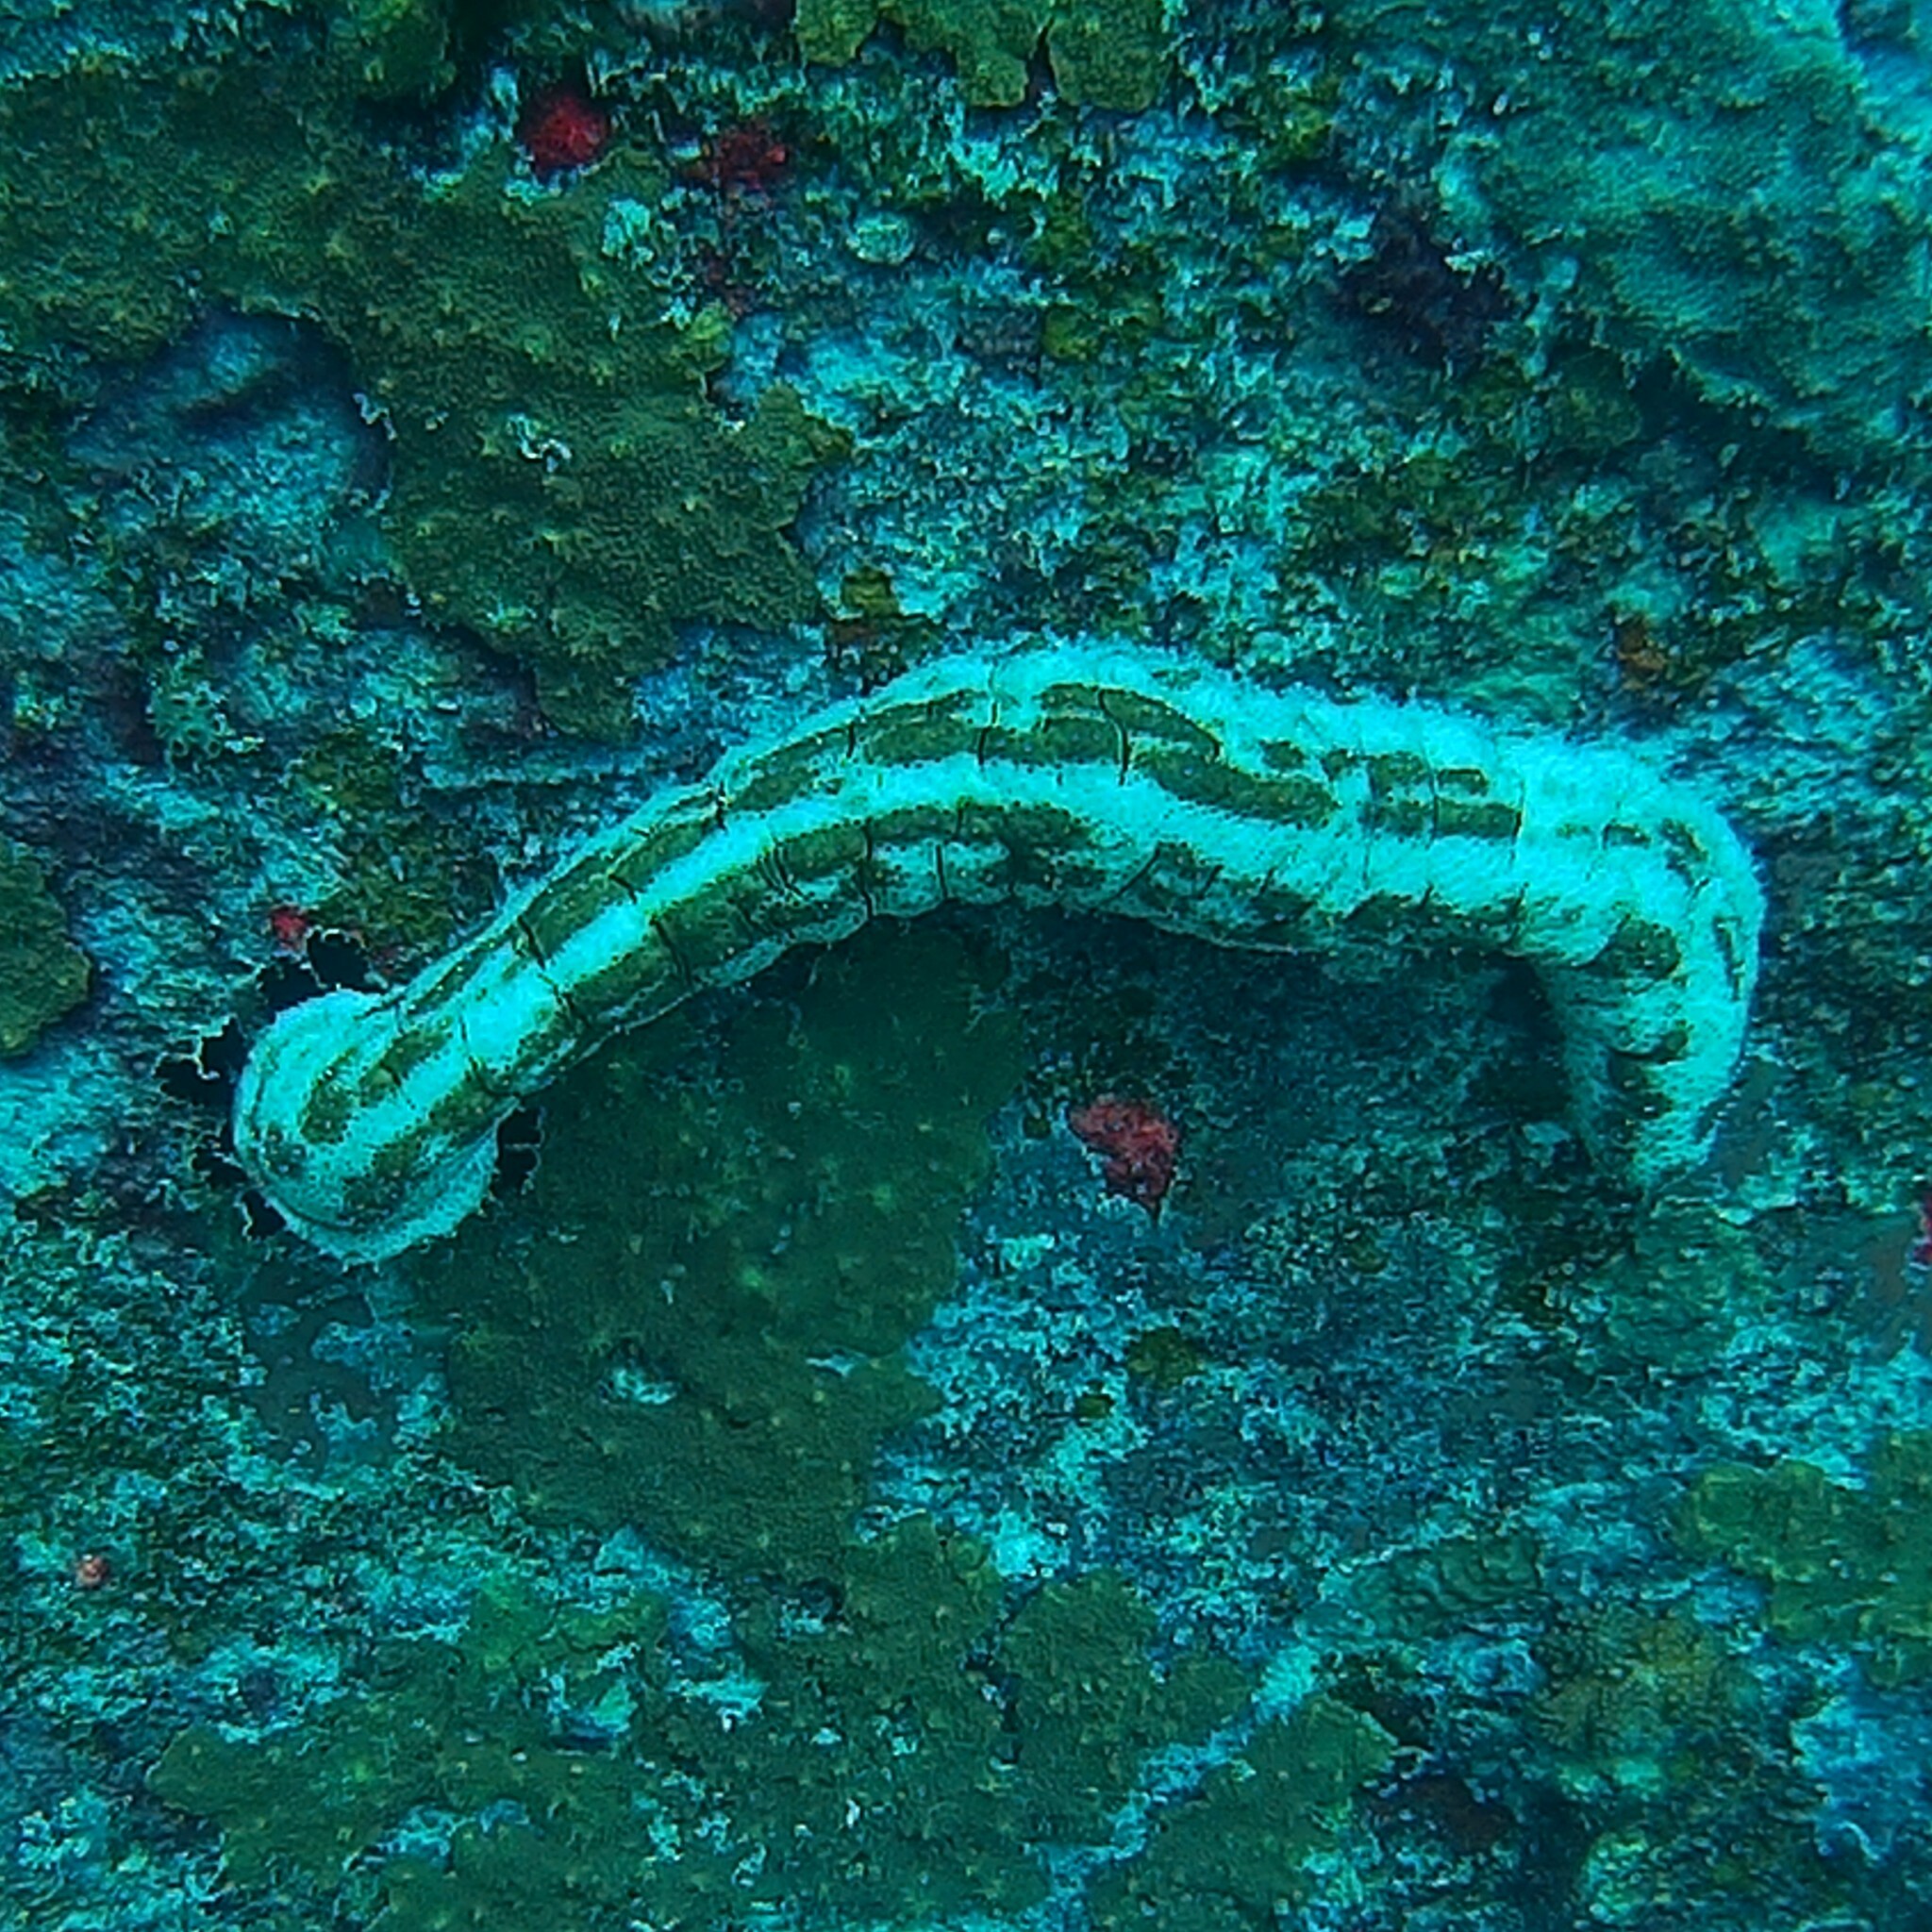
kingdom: Animalia
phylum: Echinodermata
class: Holothuroidea
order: Holothuriida
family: Holothuriidae
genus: Pearsonothuria
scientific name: Pearsonothuria graeffei
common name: Blackspotted sea cucumber
